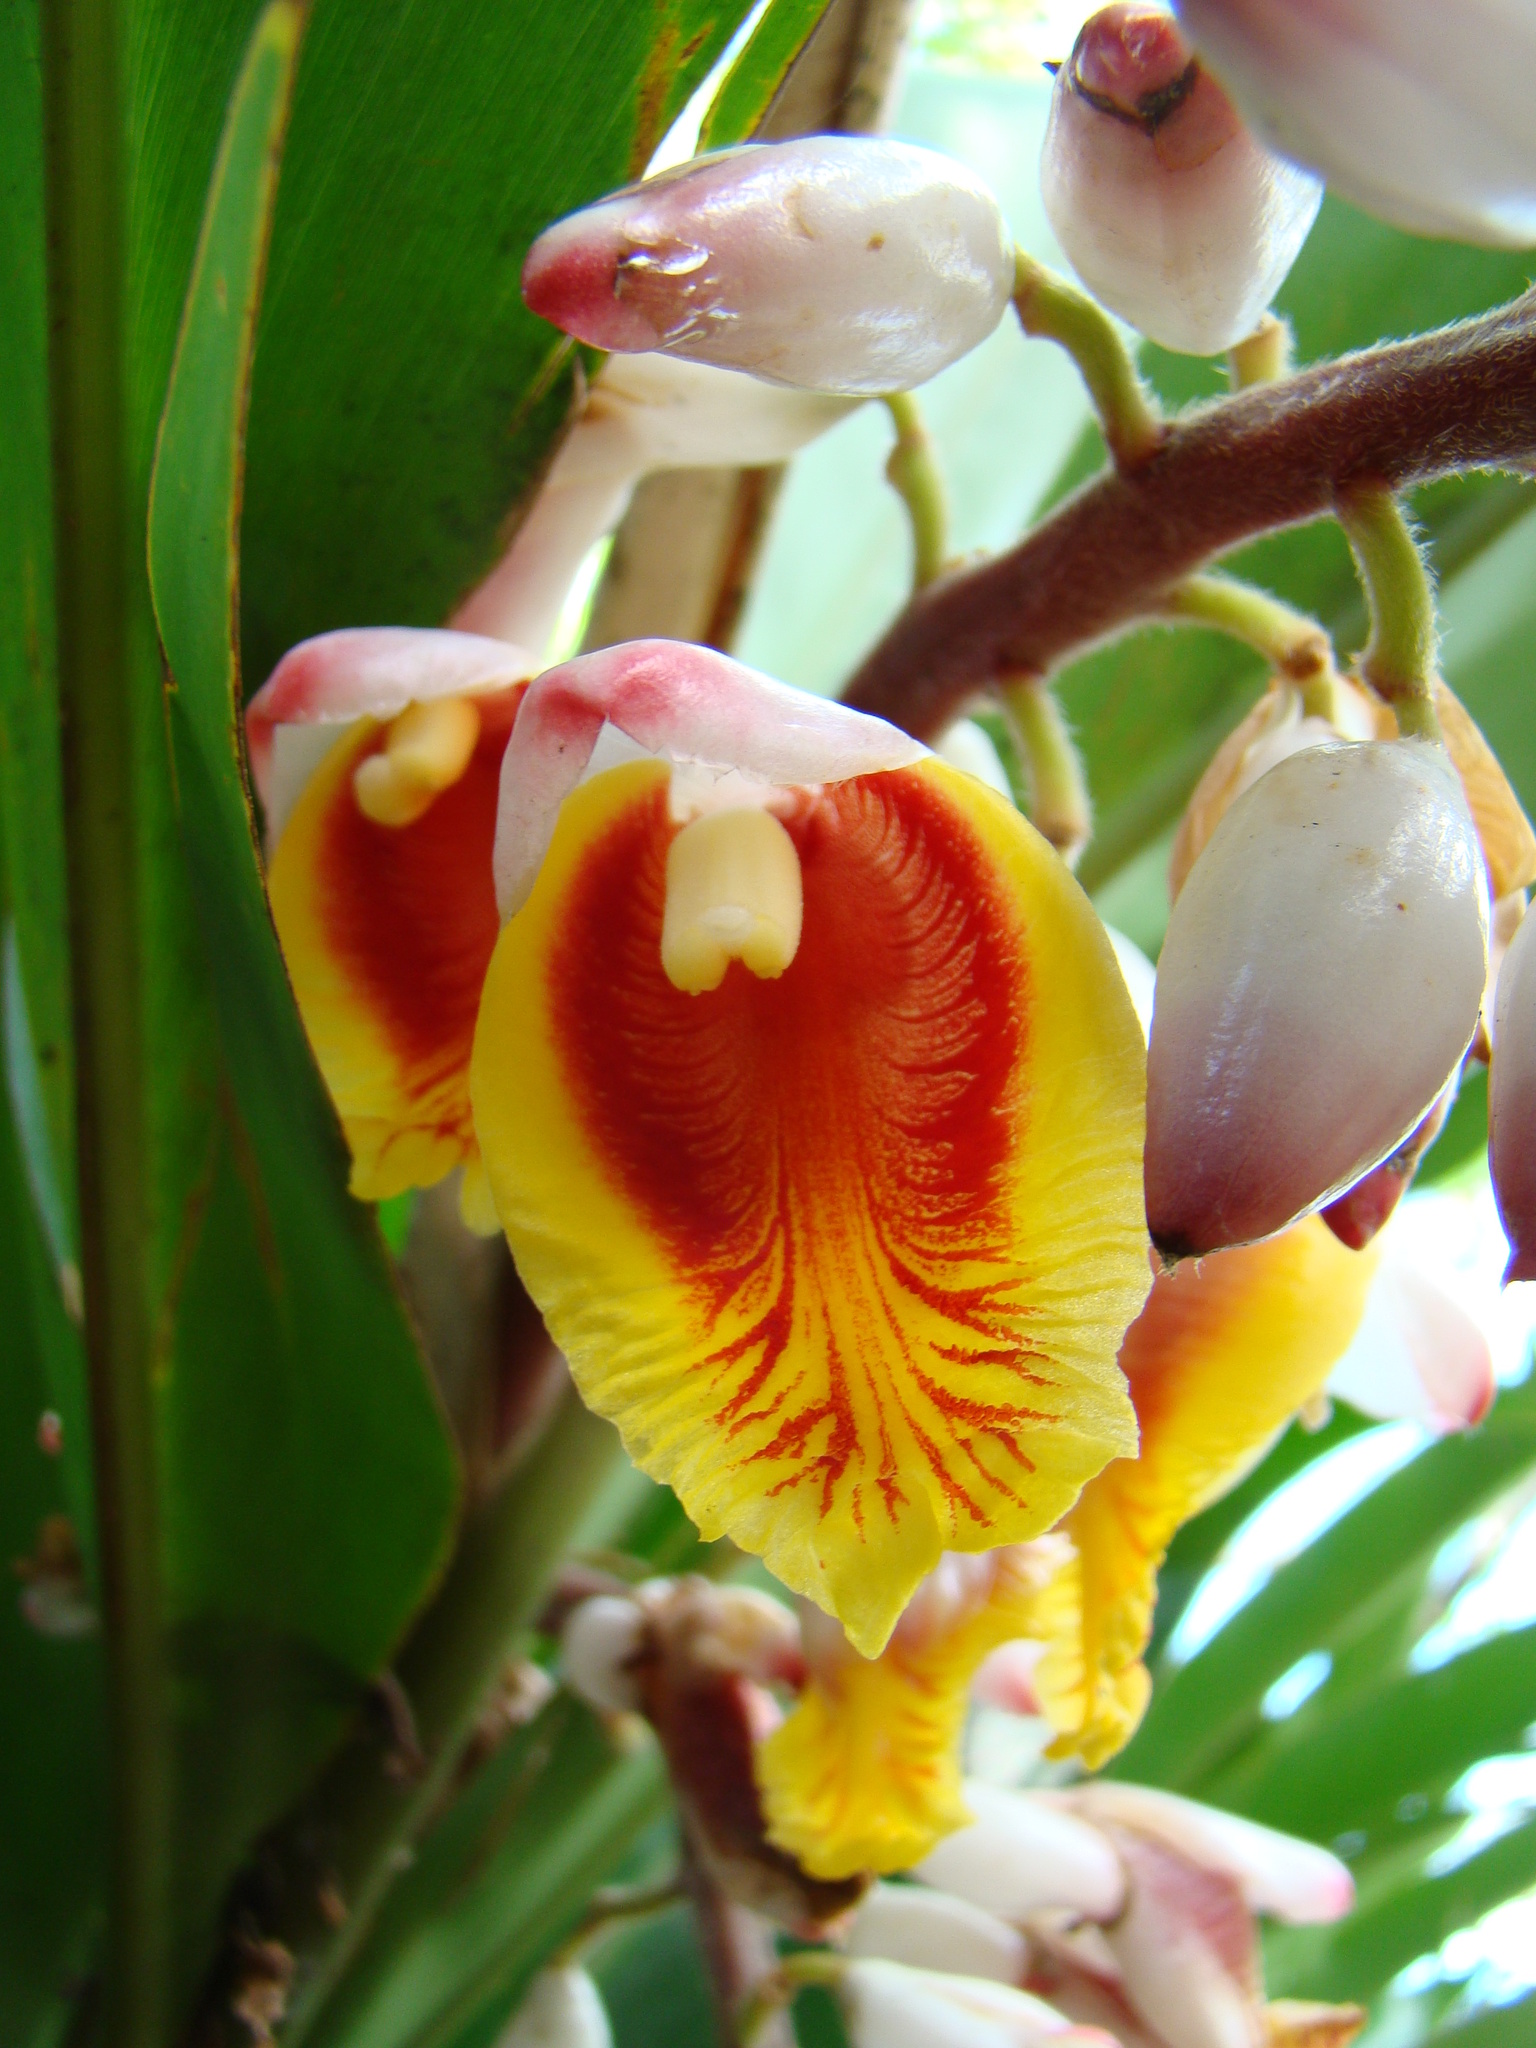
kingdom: Plantae
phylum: Tracheophyta
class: Liliopsida
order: Zingiberales
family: Zingiberaceae
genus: Alpinia
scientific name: Alpinia zerumbet
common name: Shellplant
